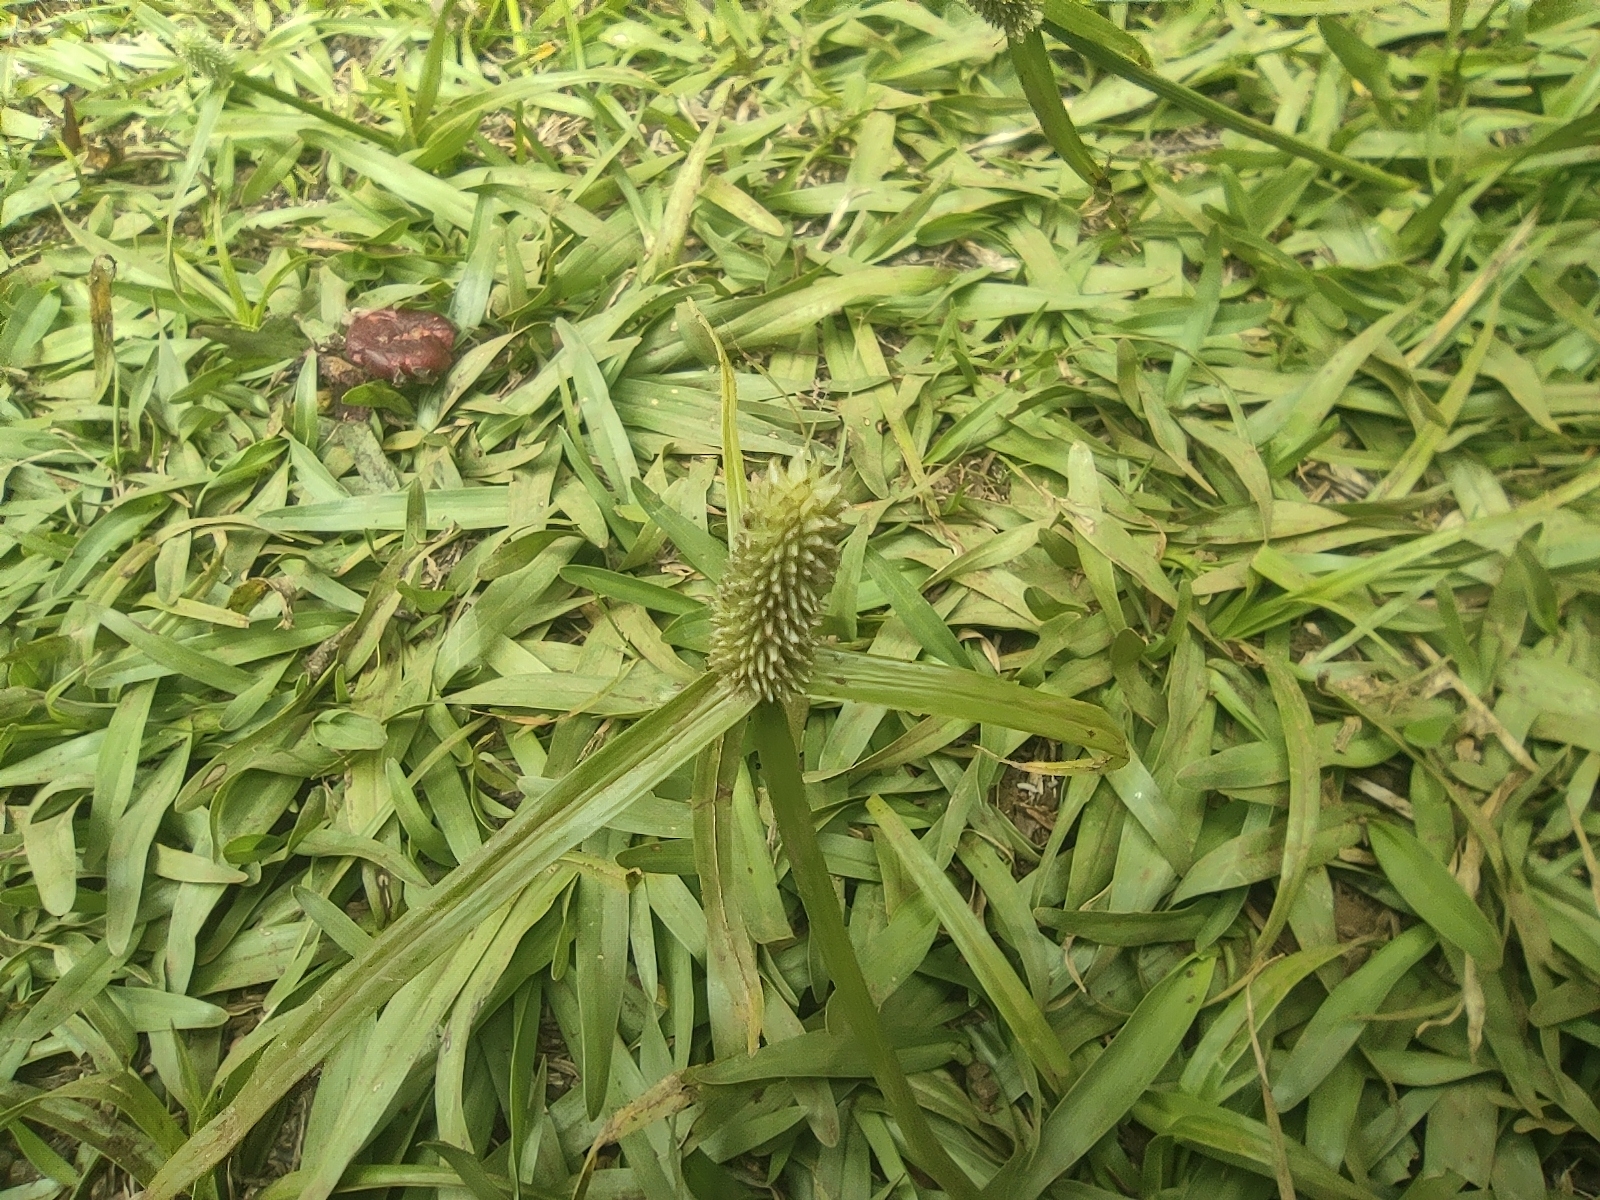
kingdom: Plantae
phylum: Tracheophyta
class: Liliopsida
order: Poales
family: Cyperaceae
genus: Cyperus
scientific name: Cyperus sesquiflorus
